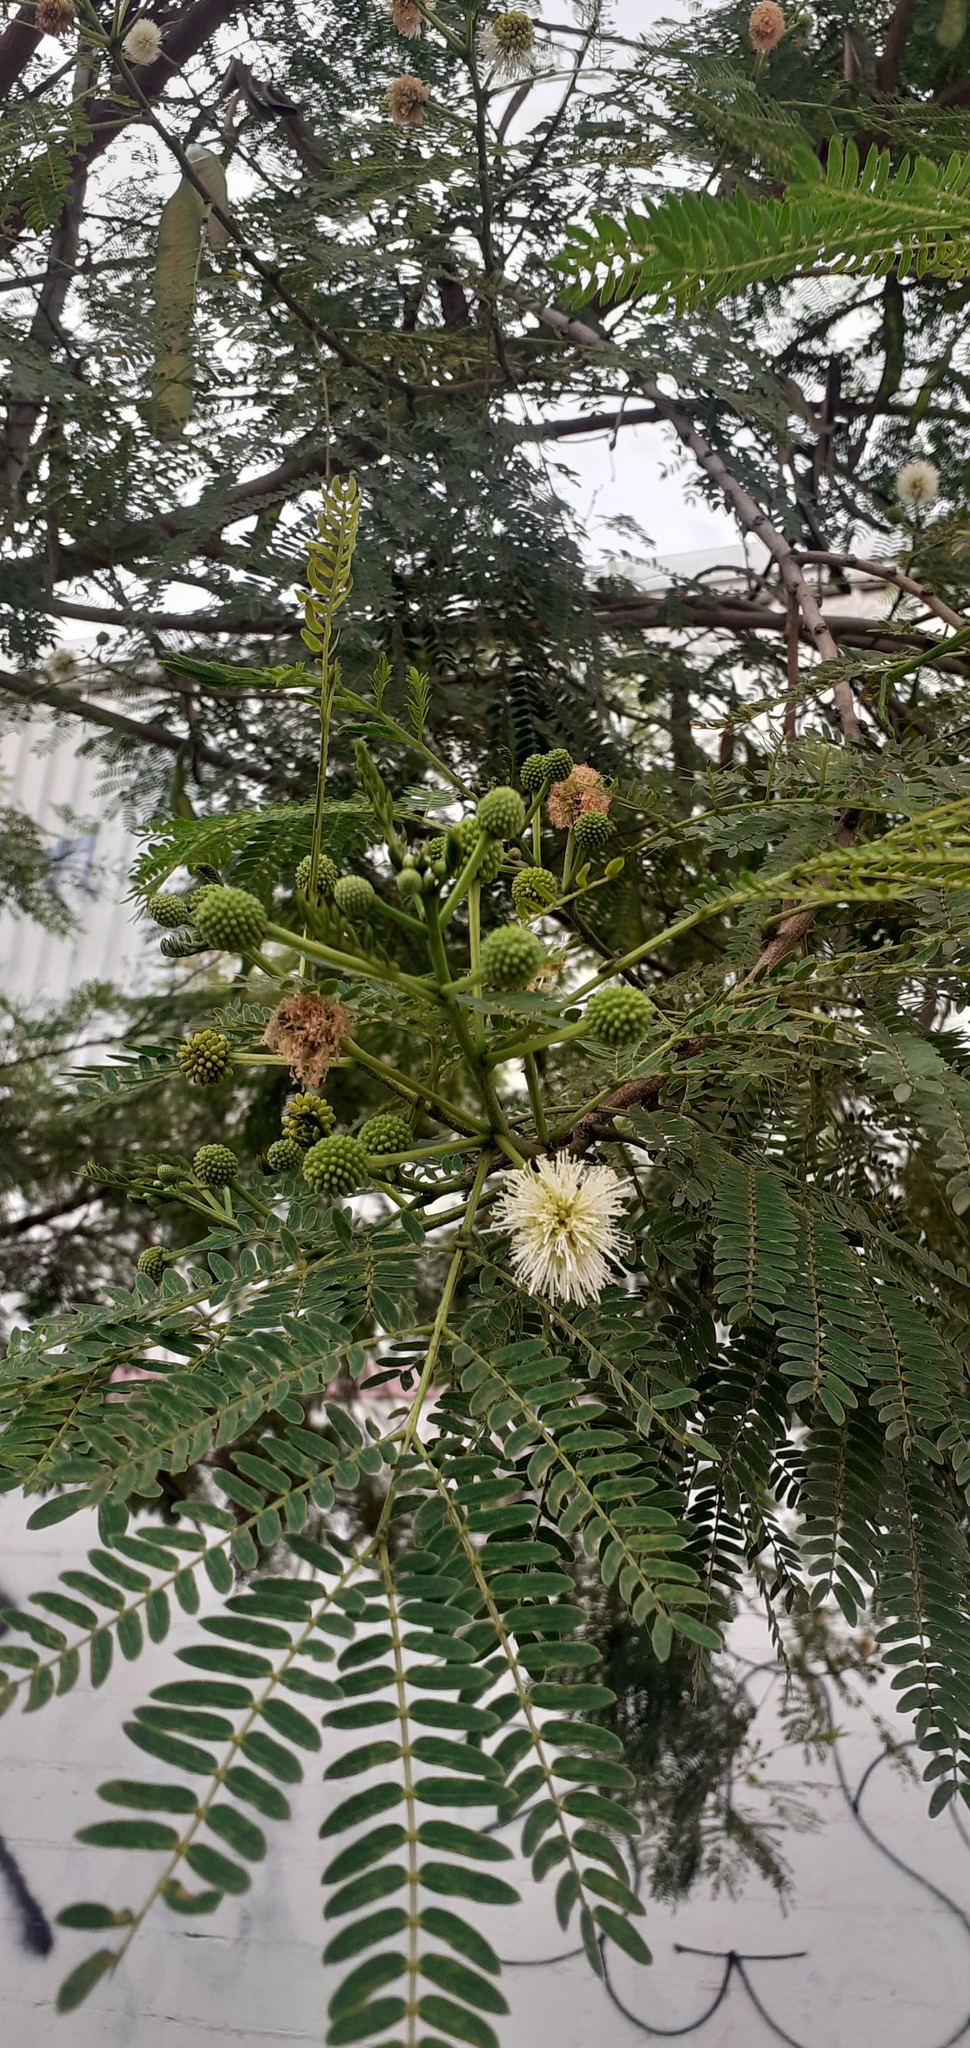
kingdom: Plantae
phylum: Tracheophyta
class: Magnoliopsida
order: Fabales
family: Fabaceae
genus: Leucaena
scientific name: Leucaena leucocephala
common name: White leadtree
